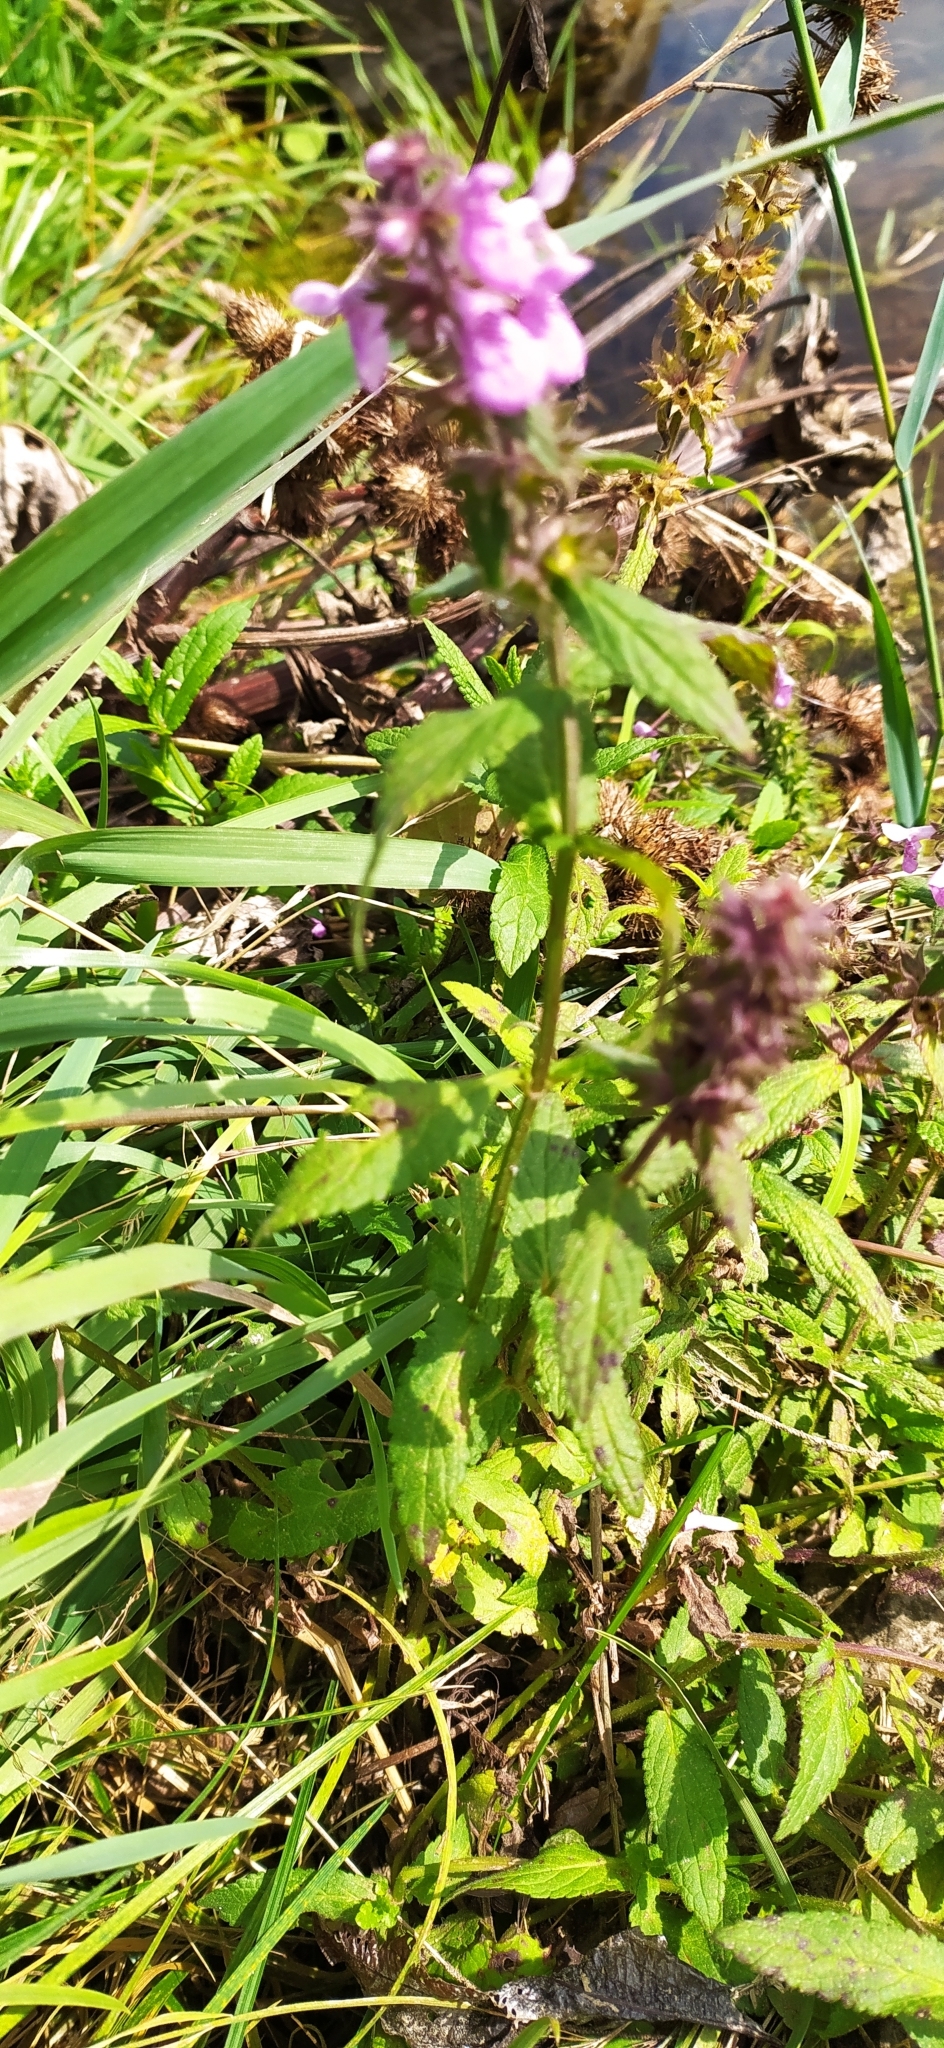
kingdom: Plantae
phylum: Tracheophyta
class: Magnoliopsida
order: Lamiales
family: Lamiaceae
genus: Stachys
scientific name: Stachys palustris
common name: Marsh woundwort
